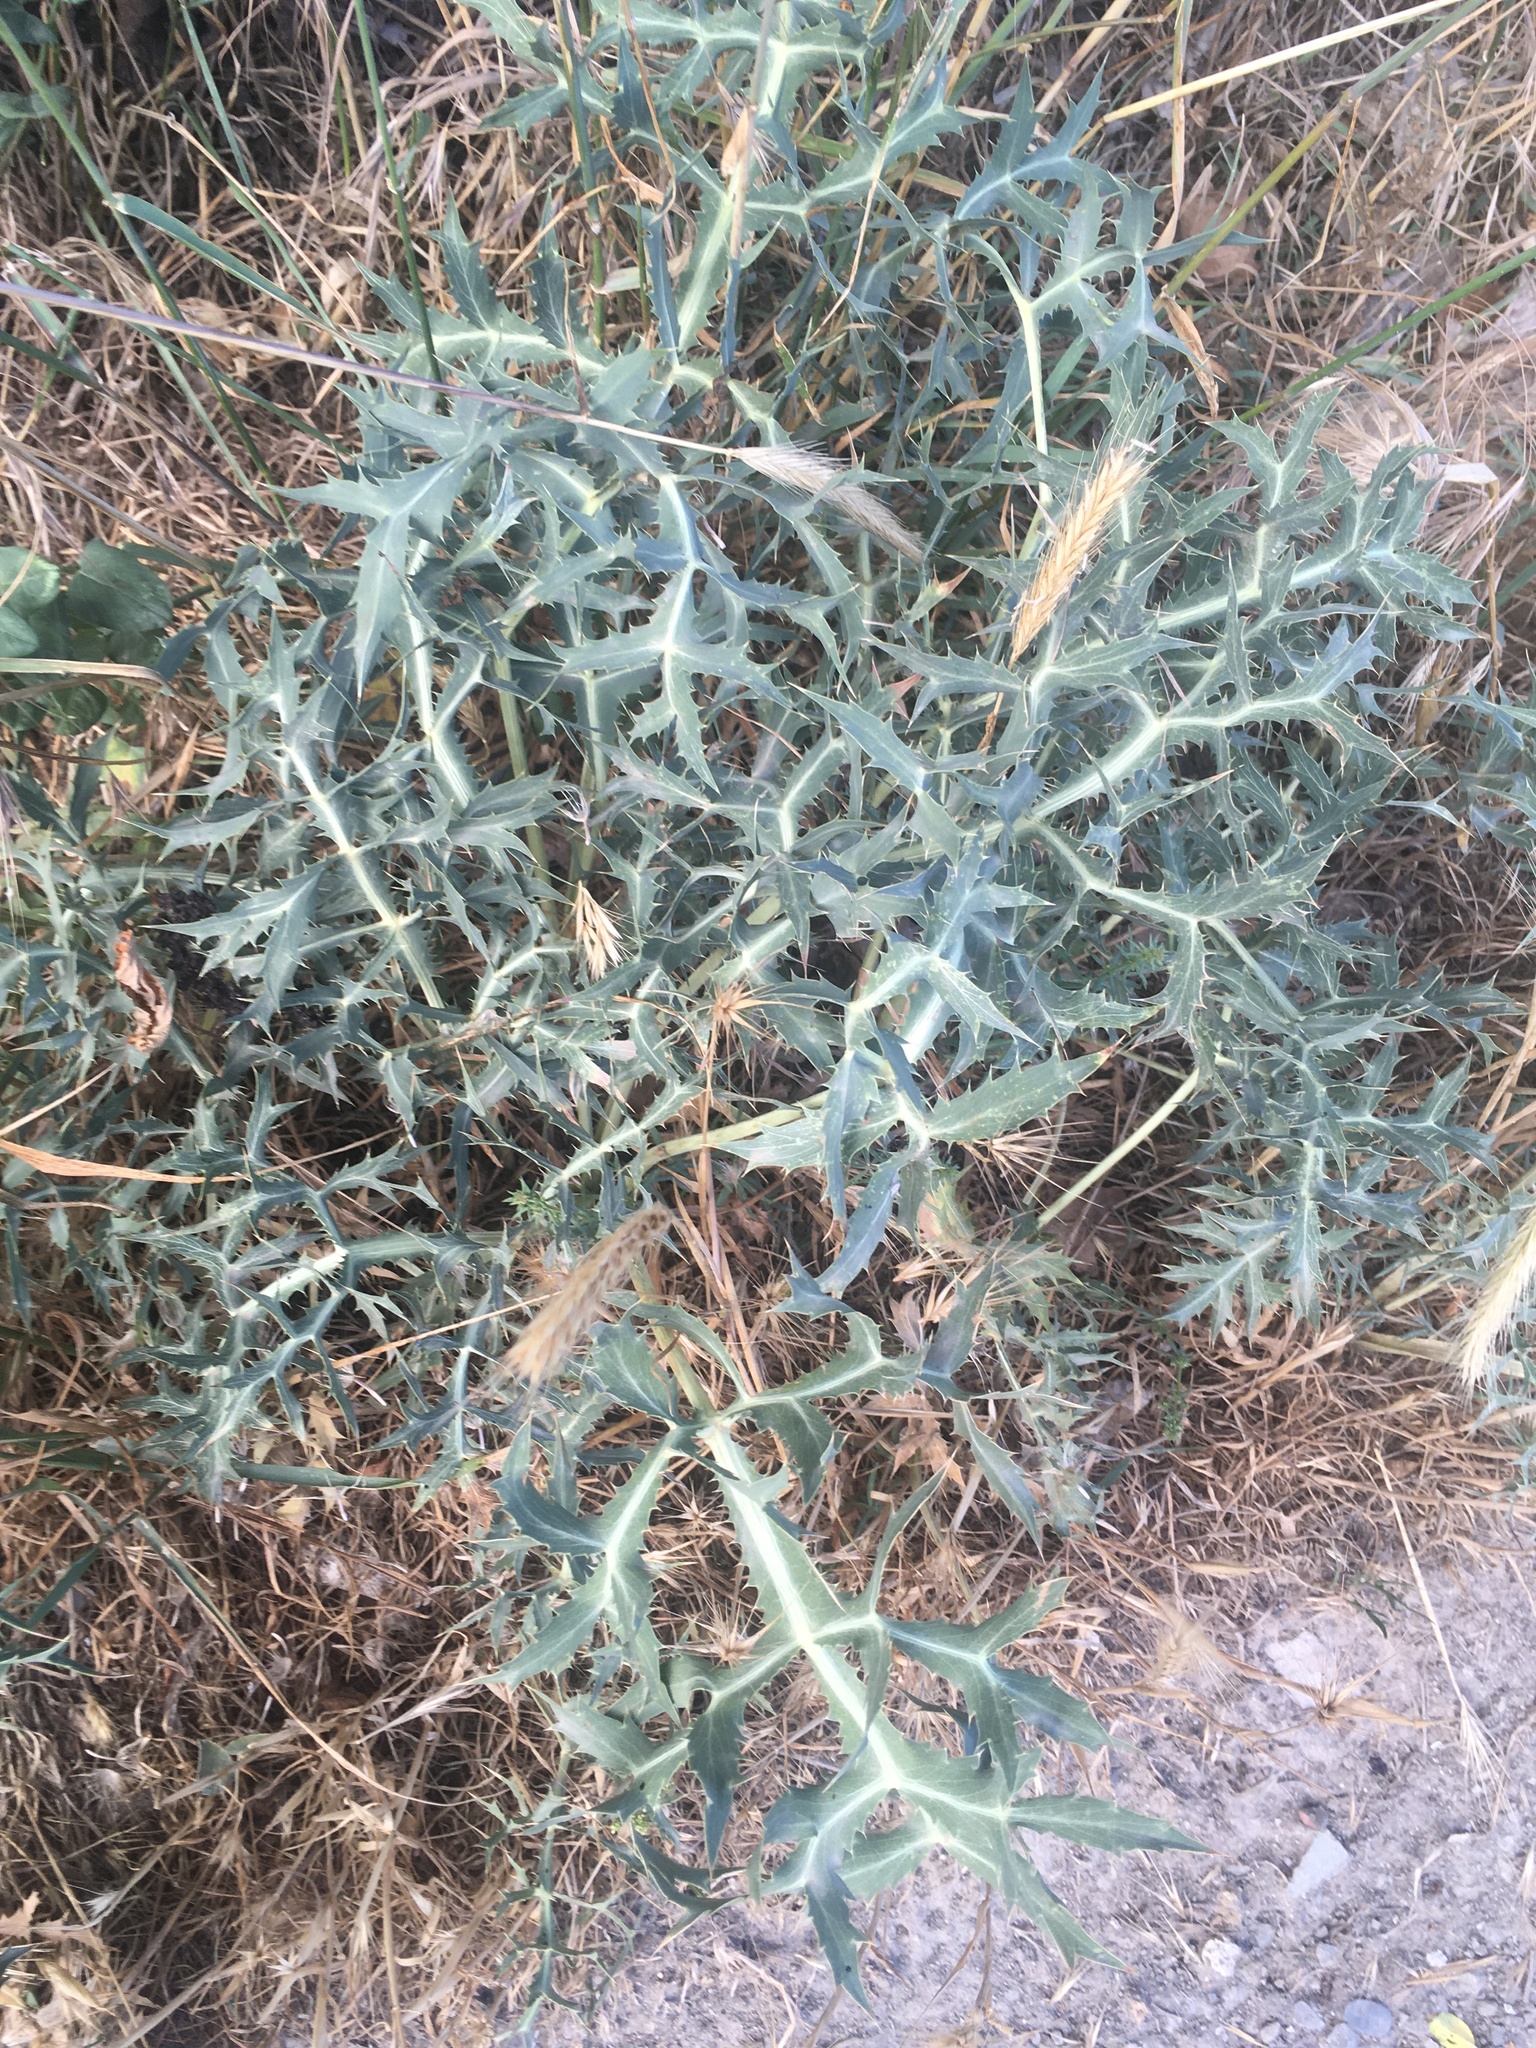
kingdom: Plantae
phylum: Tracheophyta
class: Magnoliopsida
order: Apiales
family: Apiaceae
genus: Eryngium
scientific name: Eryngium campestre
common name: Field eryngo
